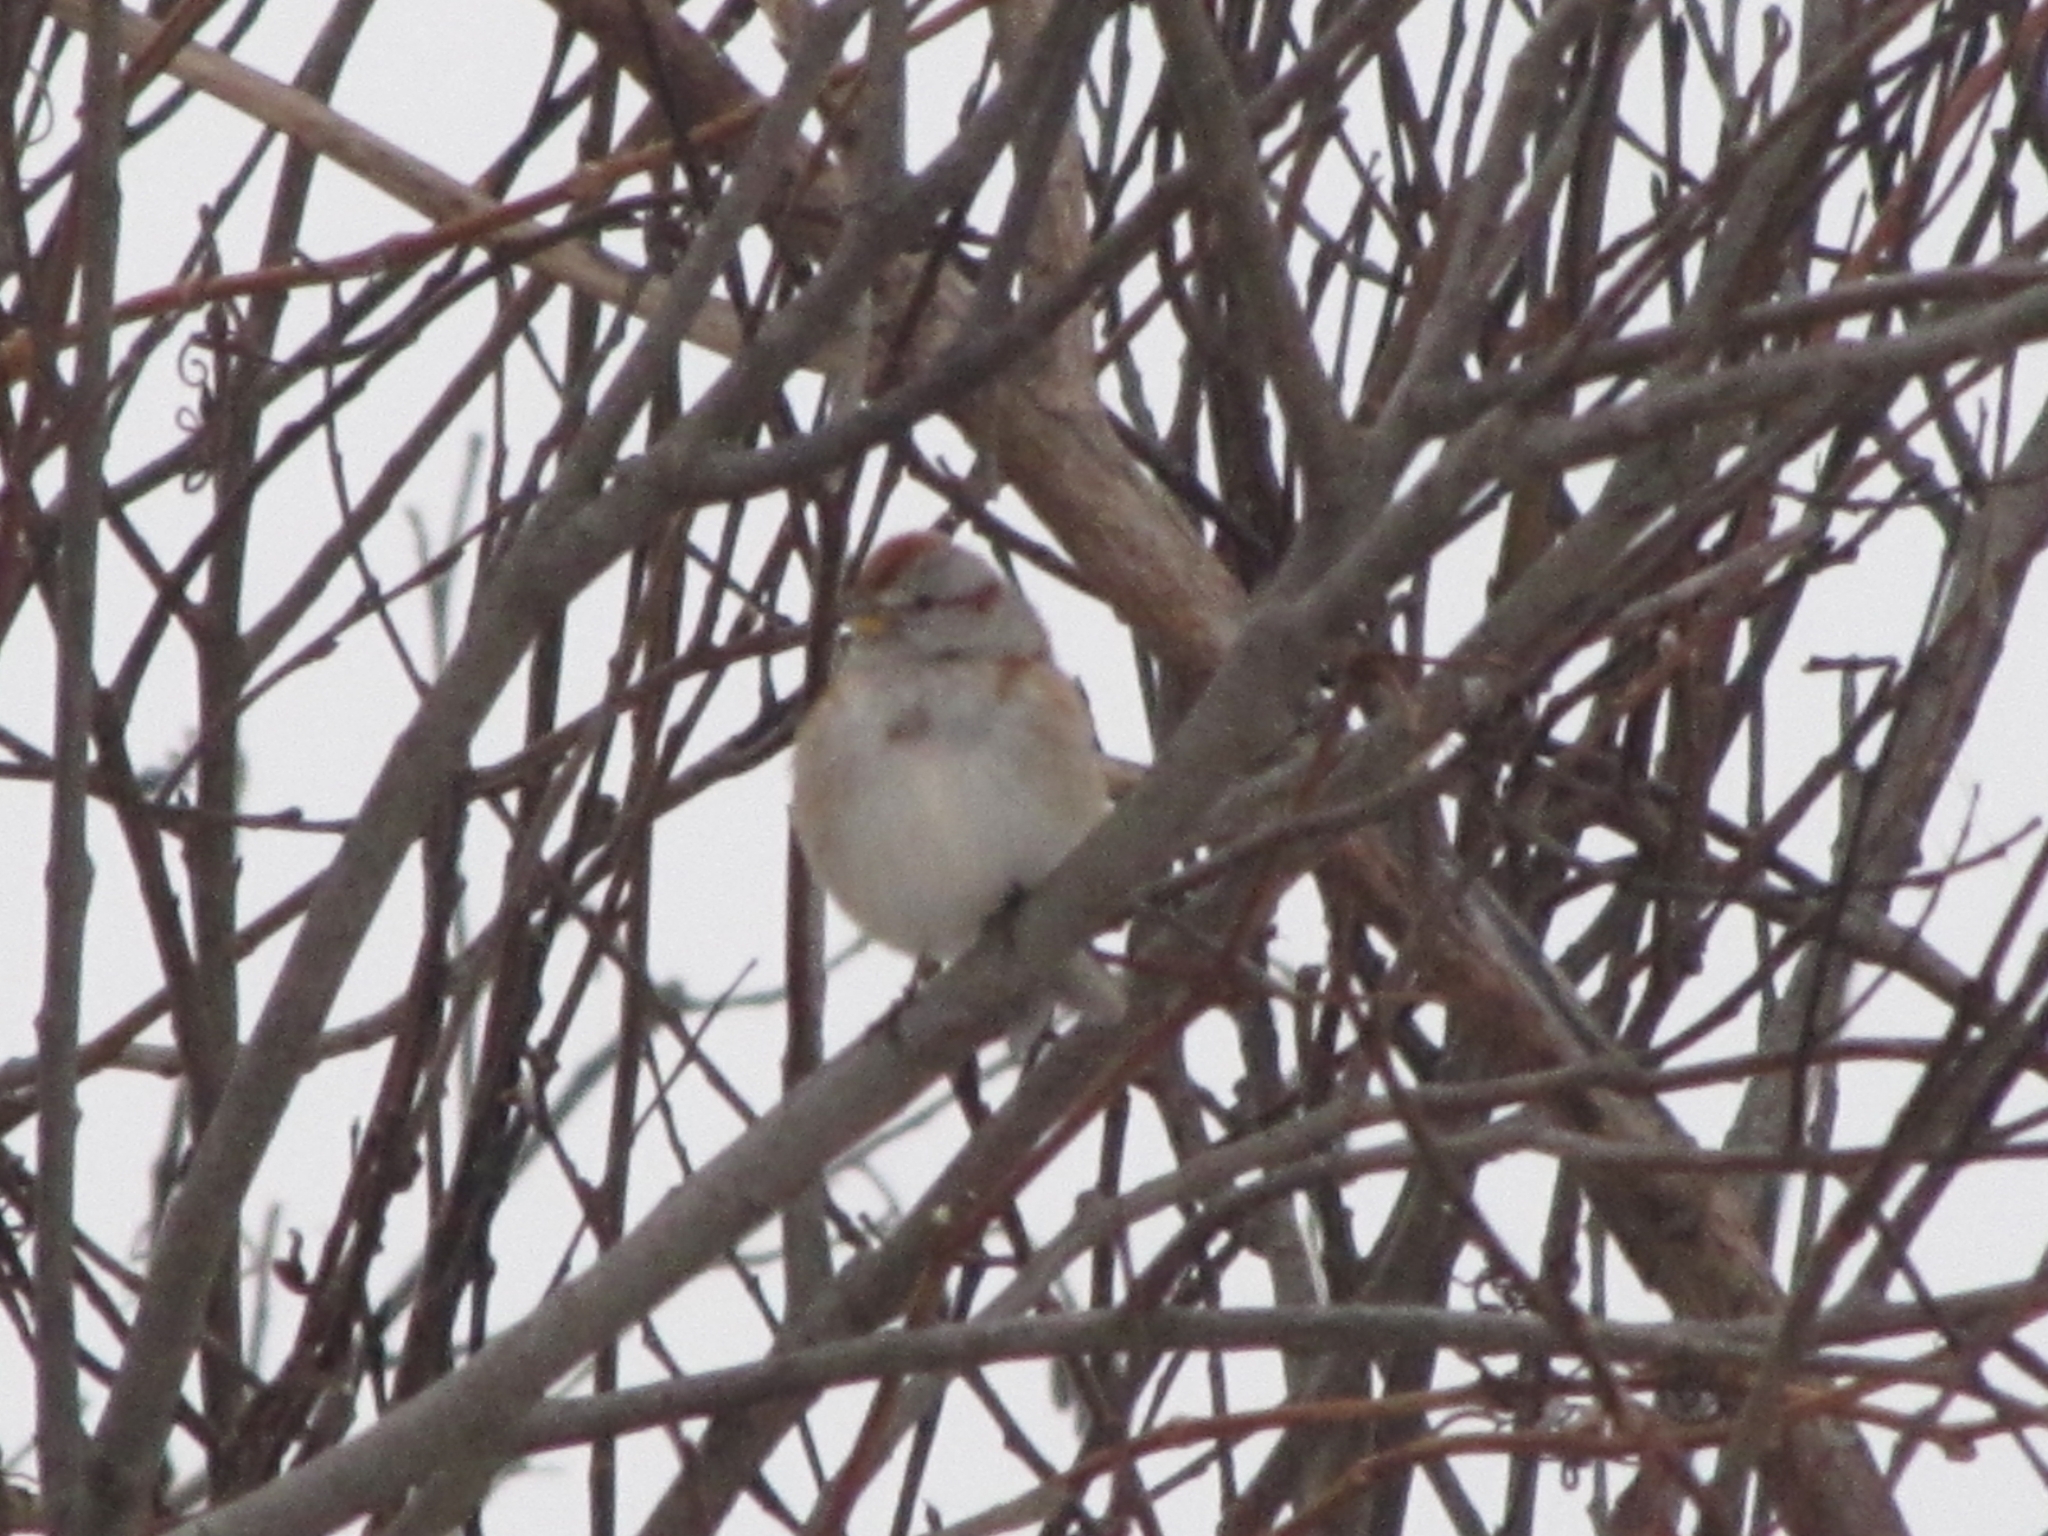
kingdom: Animalia
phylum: Chordata
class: Aves
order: Passeriformes
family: Passerellidae
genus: Spizelloides
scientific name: Spizelloides arborea
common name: American tree sparrow
